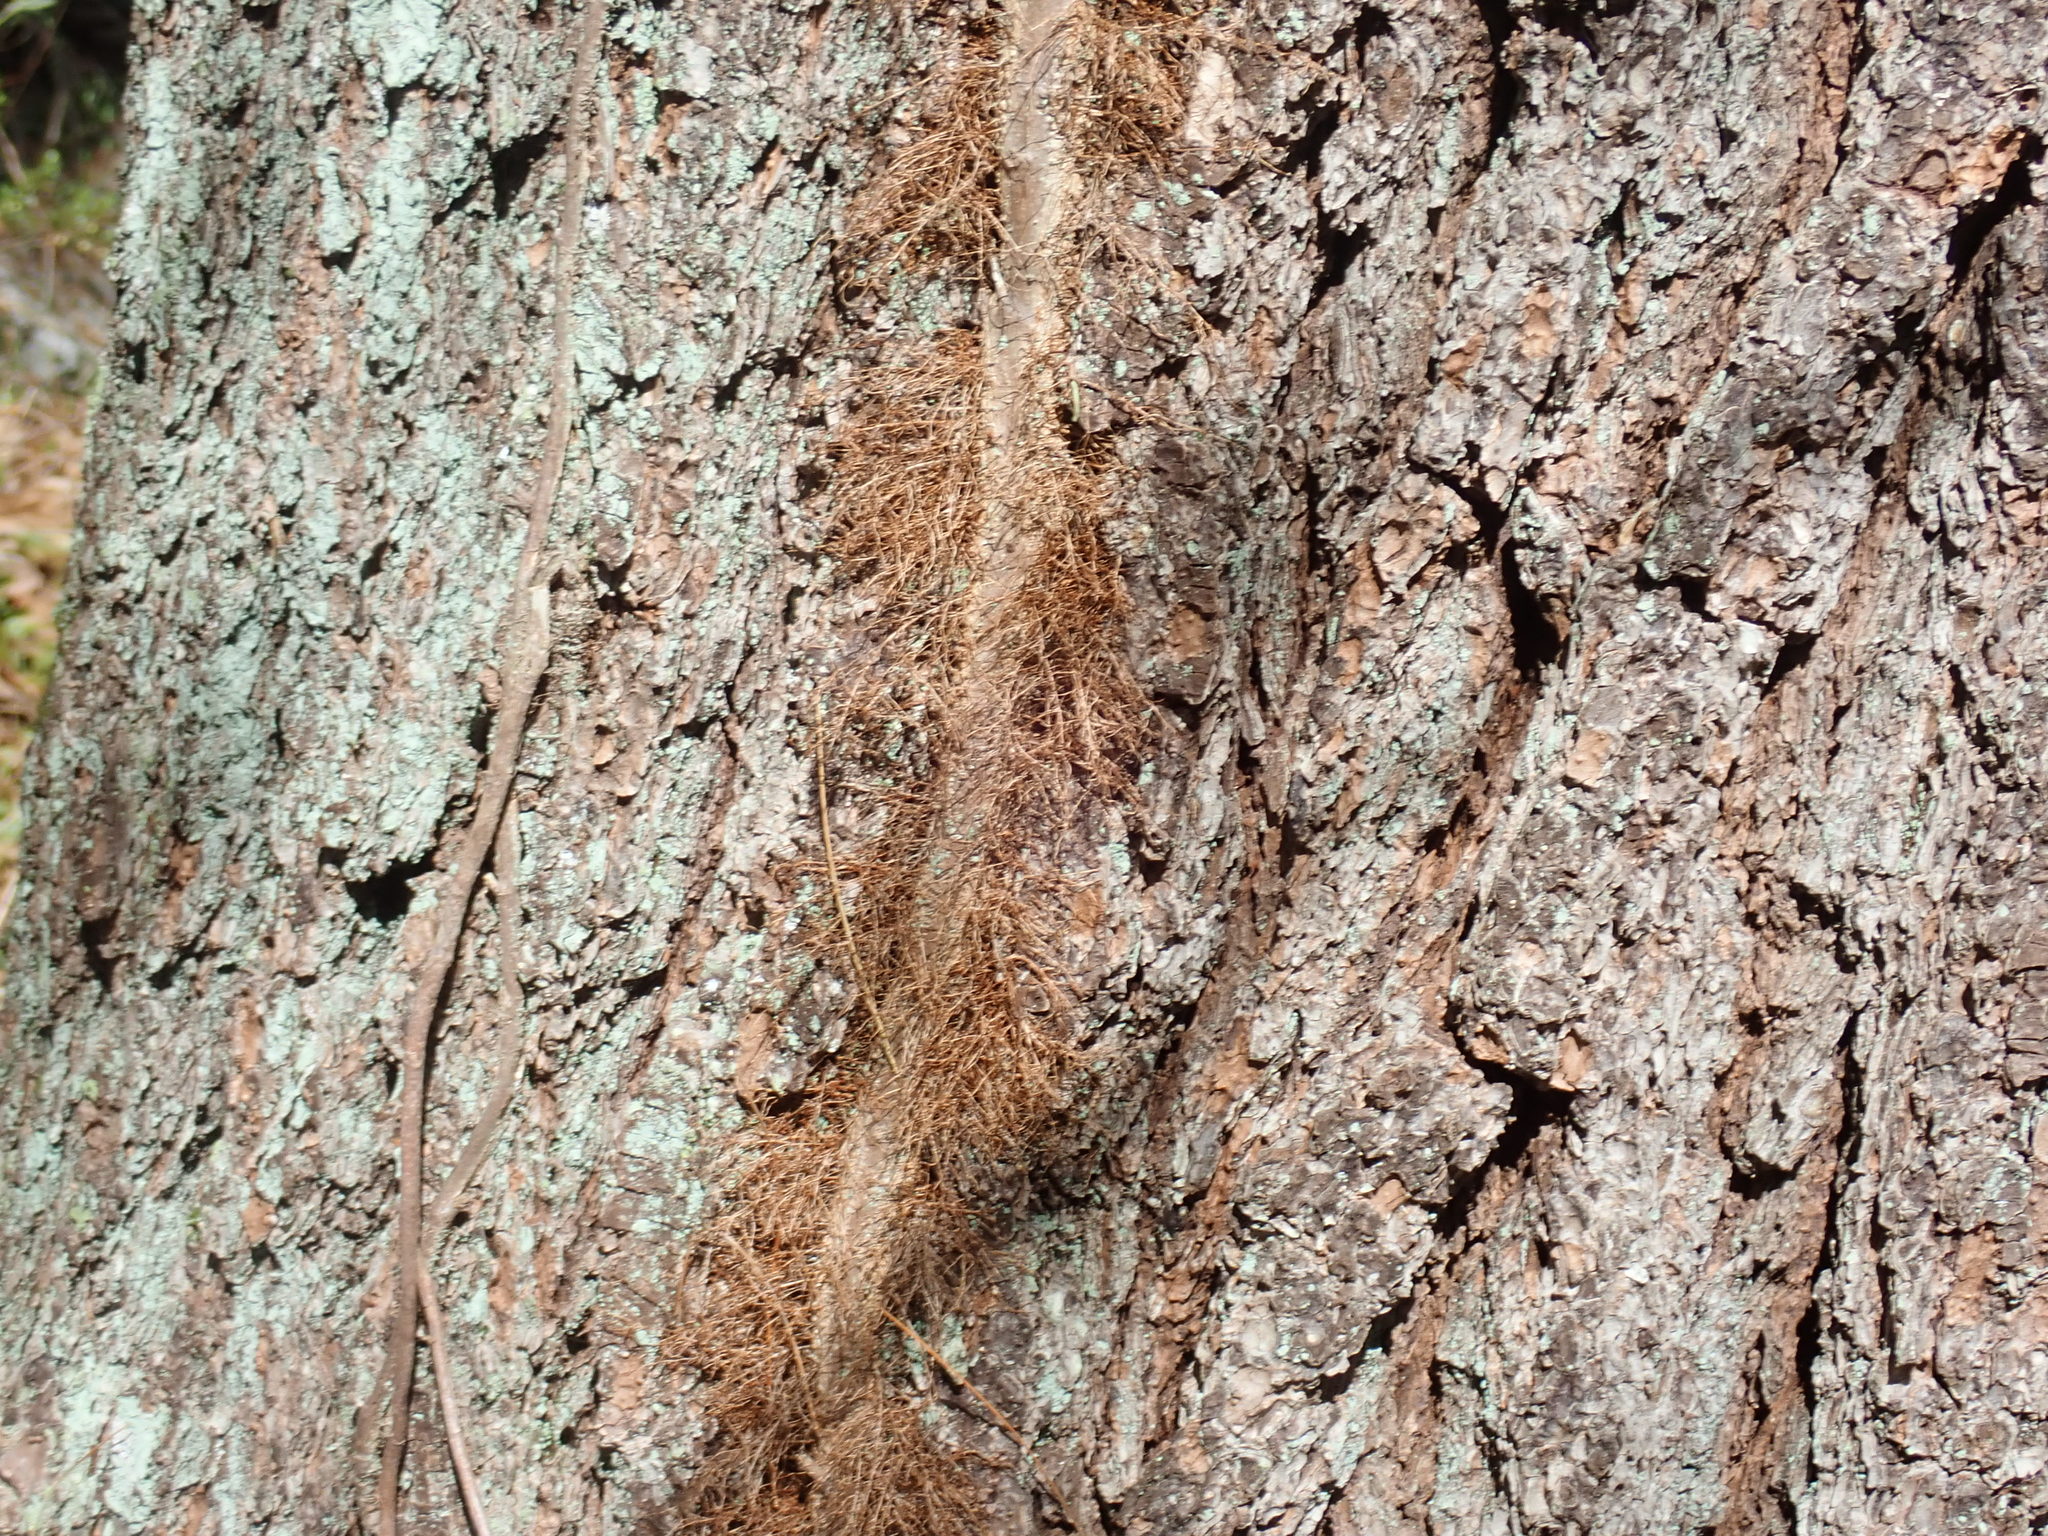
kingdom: Plantae
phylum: Tracheophyta
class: Magnoliopsida
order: Sapindales
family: Anacardiaceae
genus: Toxicodendron
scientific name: Toxicodendron radicans
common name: Poison ivy
